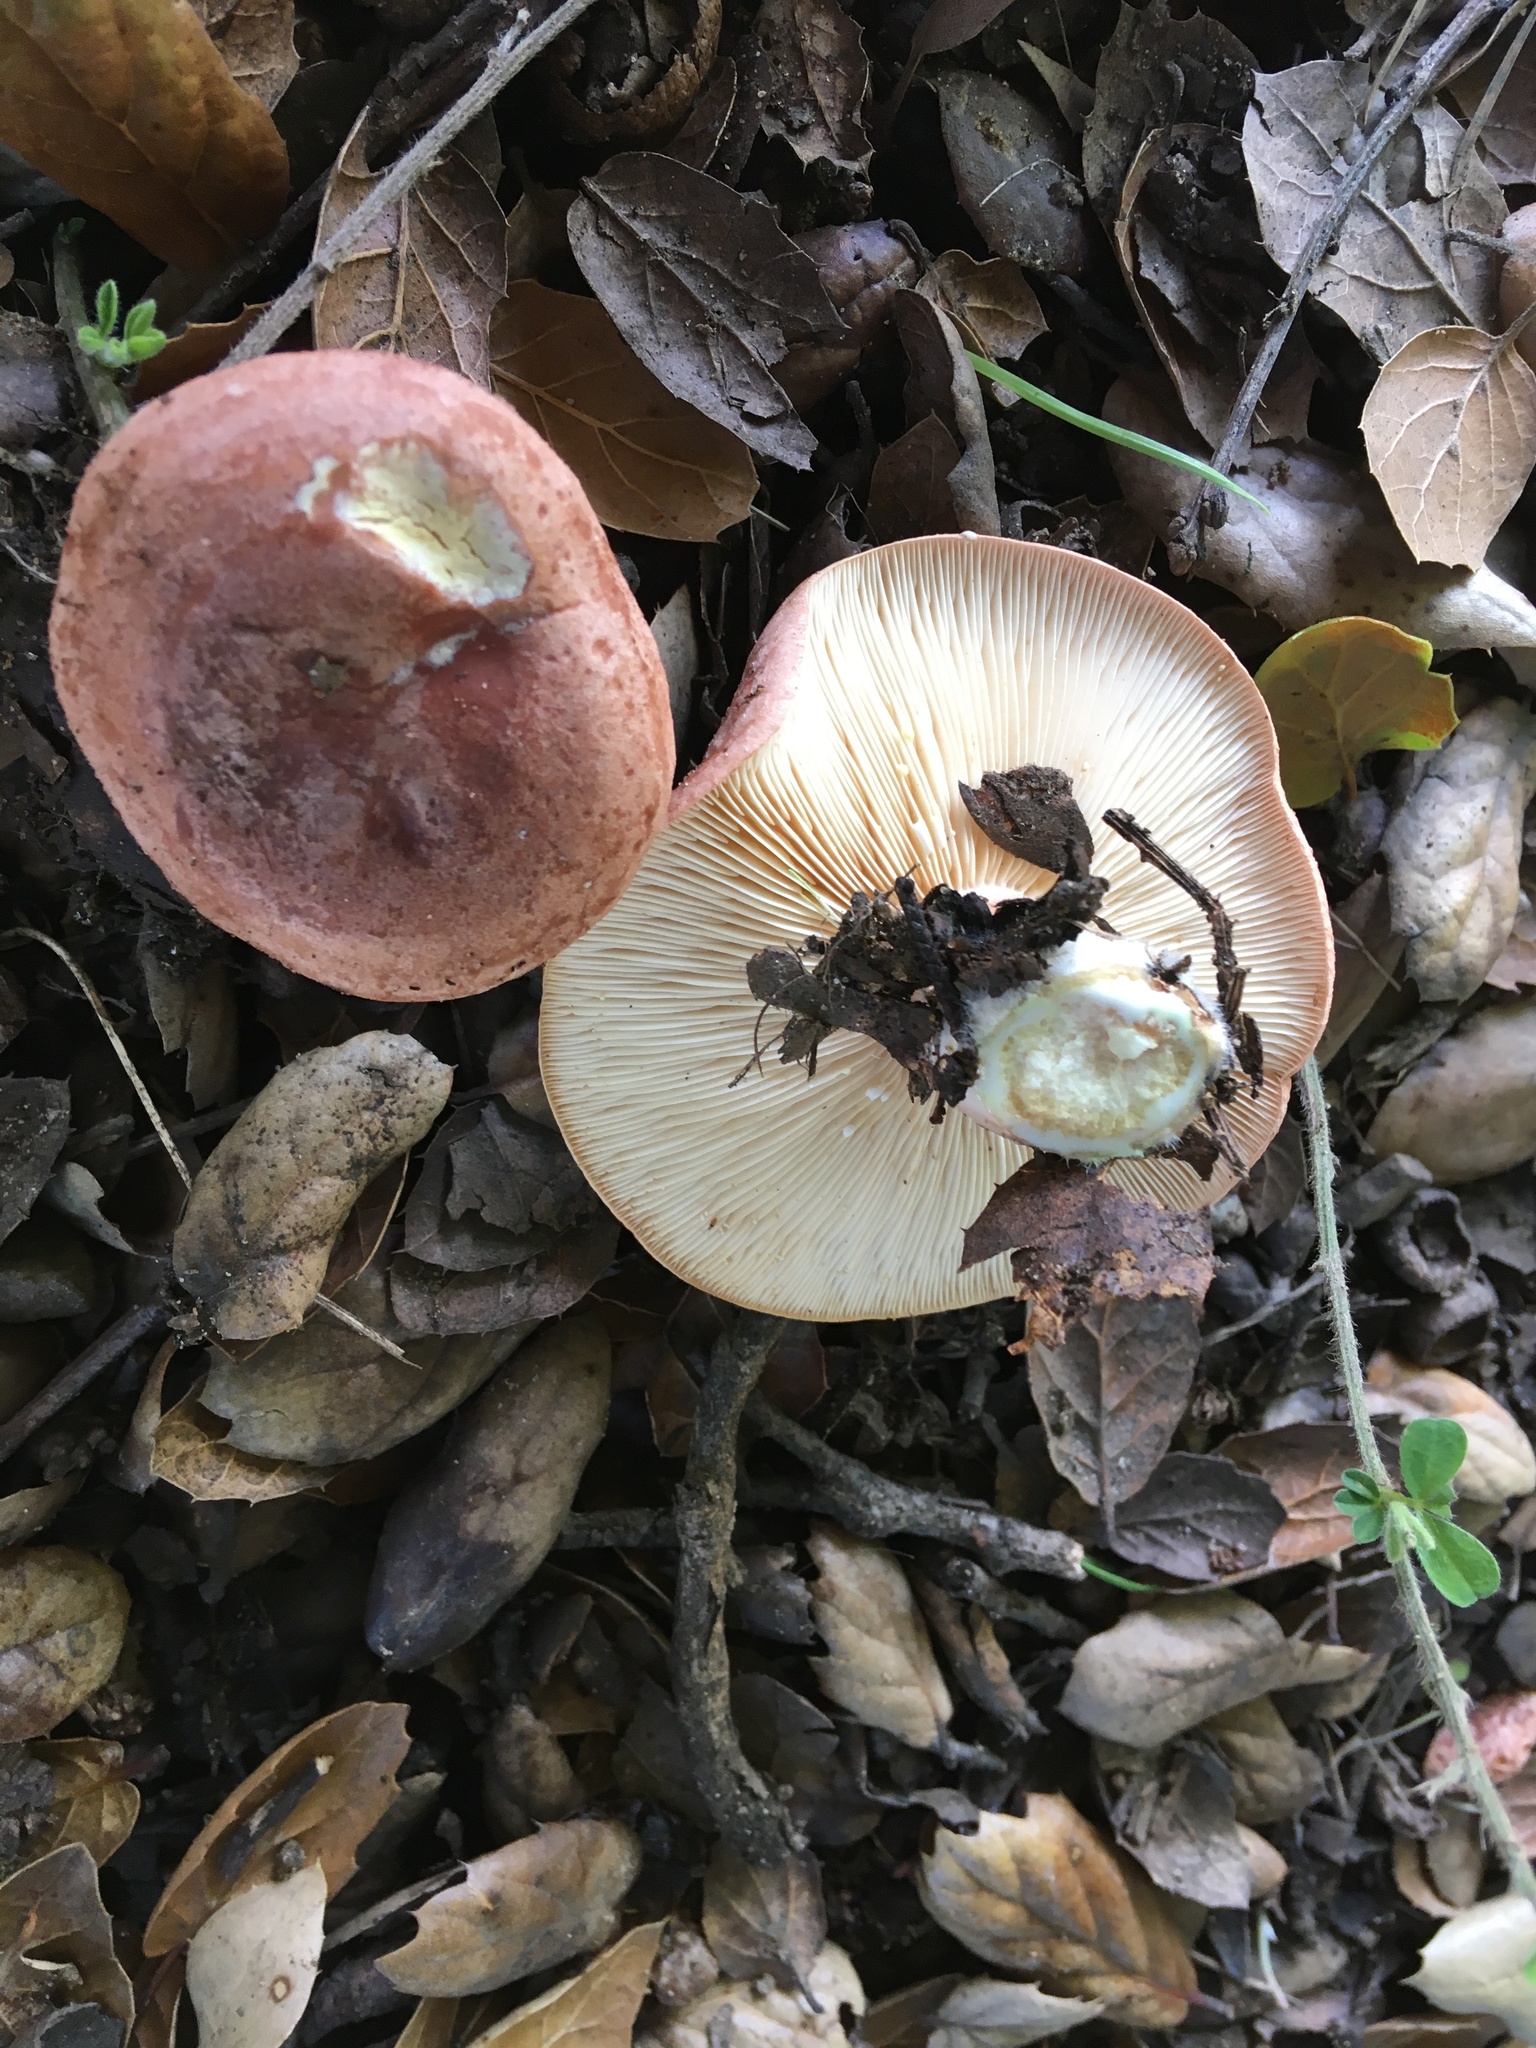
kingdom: Fungi
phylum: Basidiomycota
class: Agaricomycetes
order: Russulales
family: Russulaceae
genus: Lactarius
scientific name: Lactarius xanthogalactus
